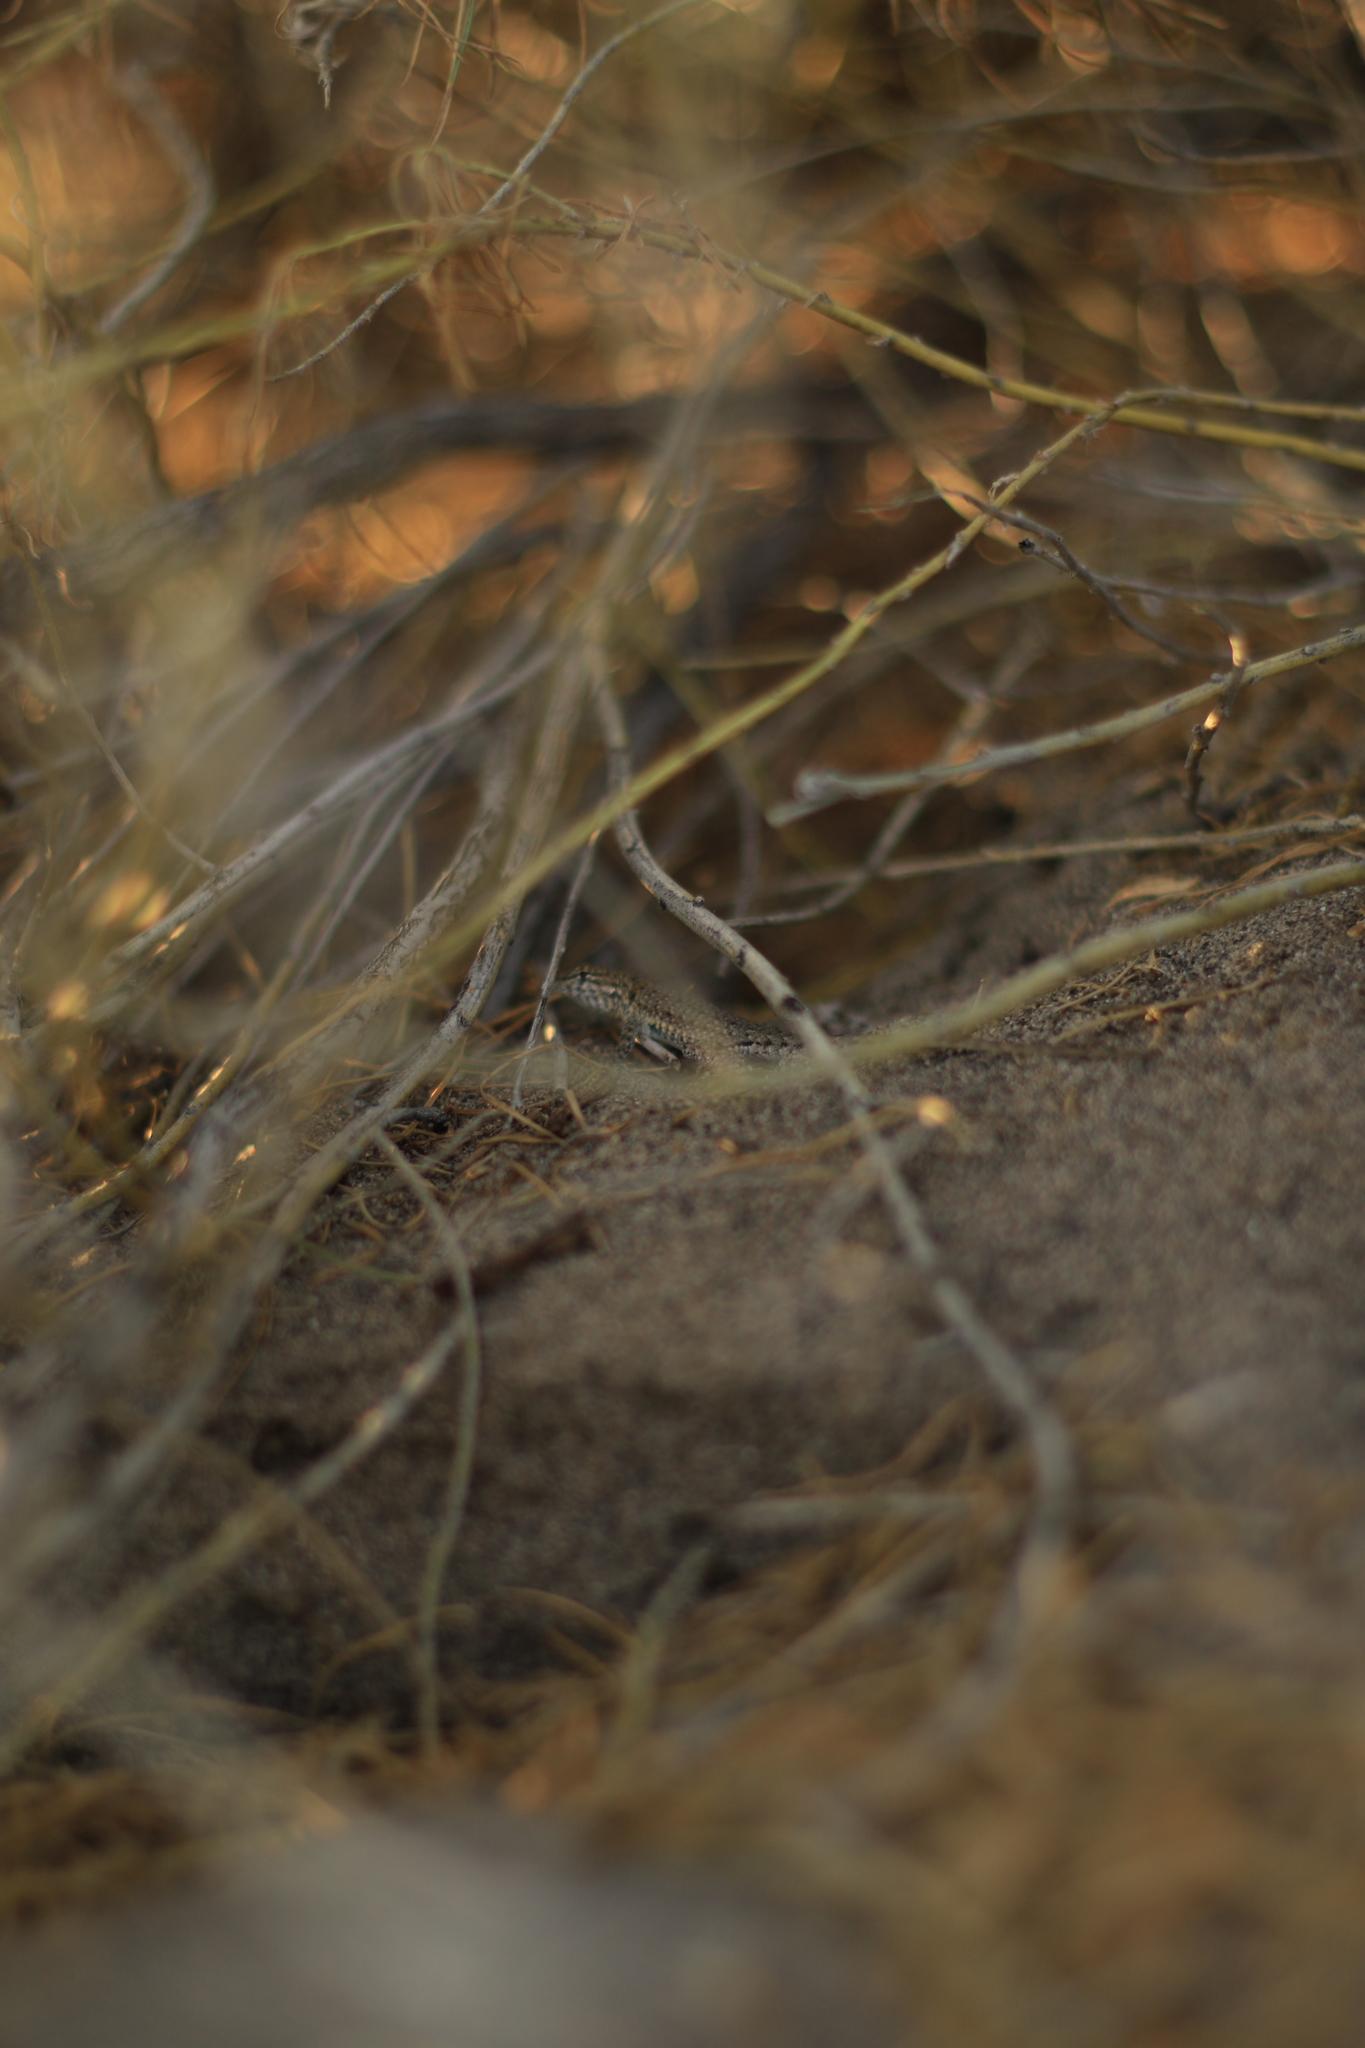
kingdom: Animalia
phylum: Chordata
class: Squamata
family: Phrynosomatidae
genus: Uta
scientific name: Uta stansburiana
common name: Side-blotched lizard
